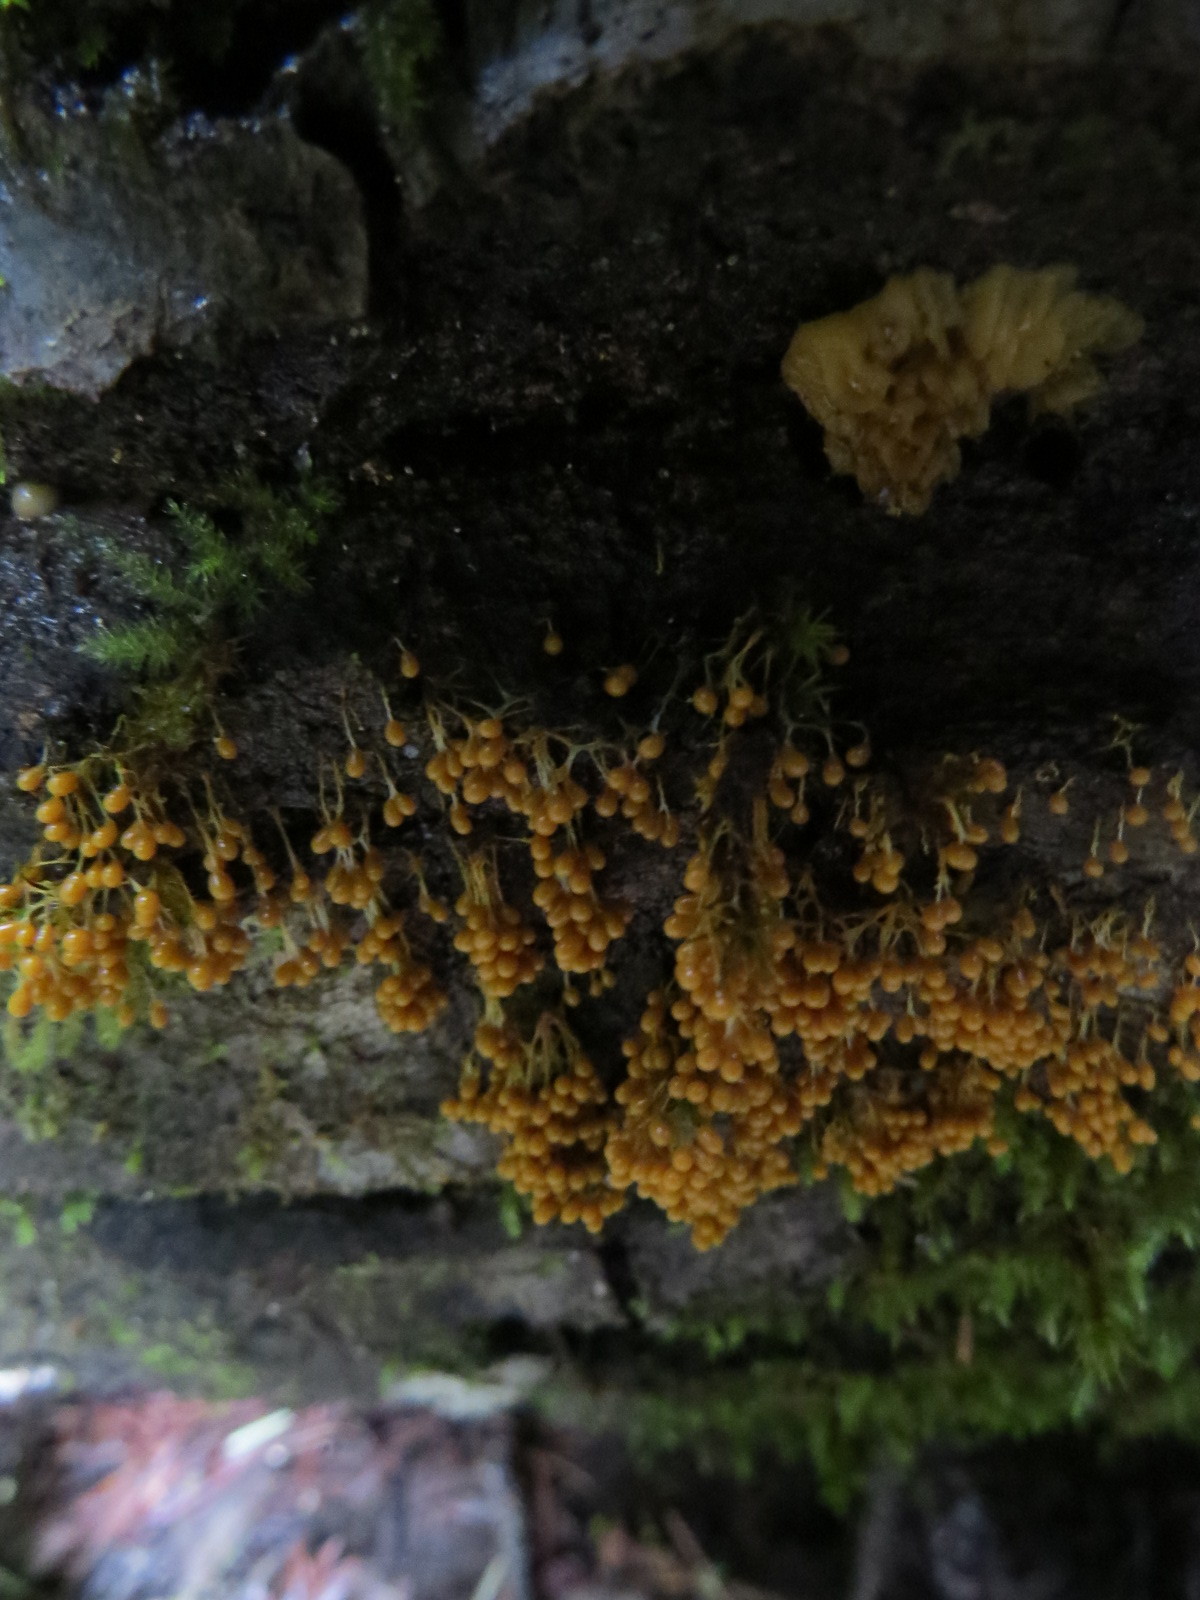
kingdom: Protozoa
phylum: Mycetozoa
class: Myxomycetes
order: Physarales
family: Physaraceae
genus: Badhamia
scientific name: Badhamia utricularis
